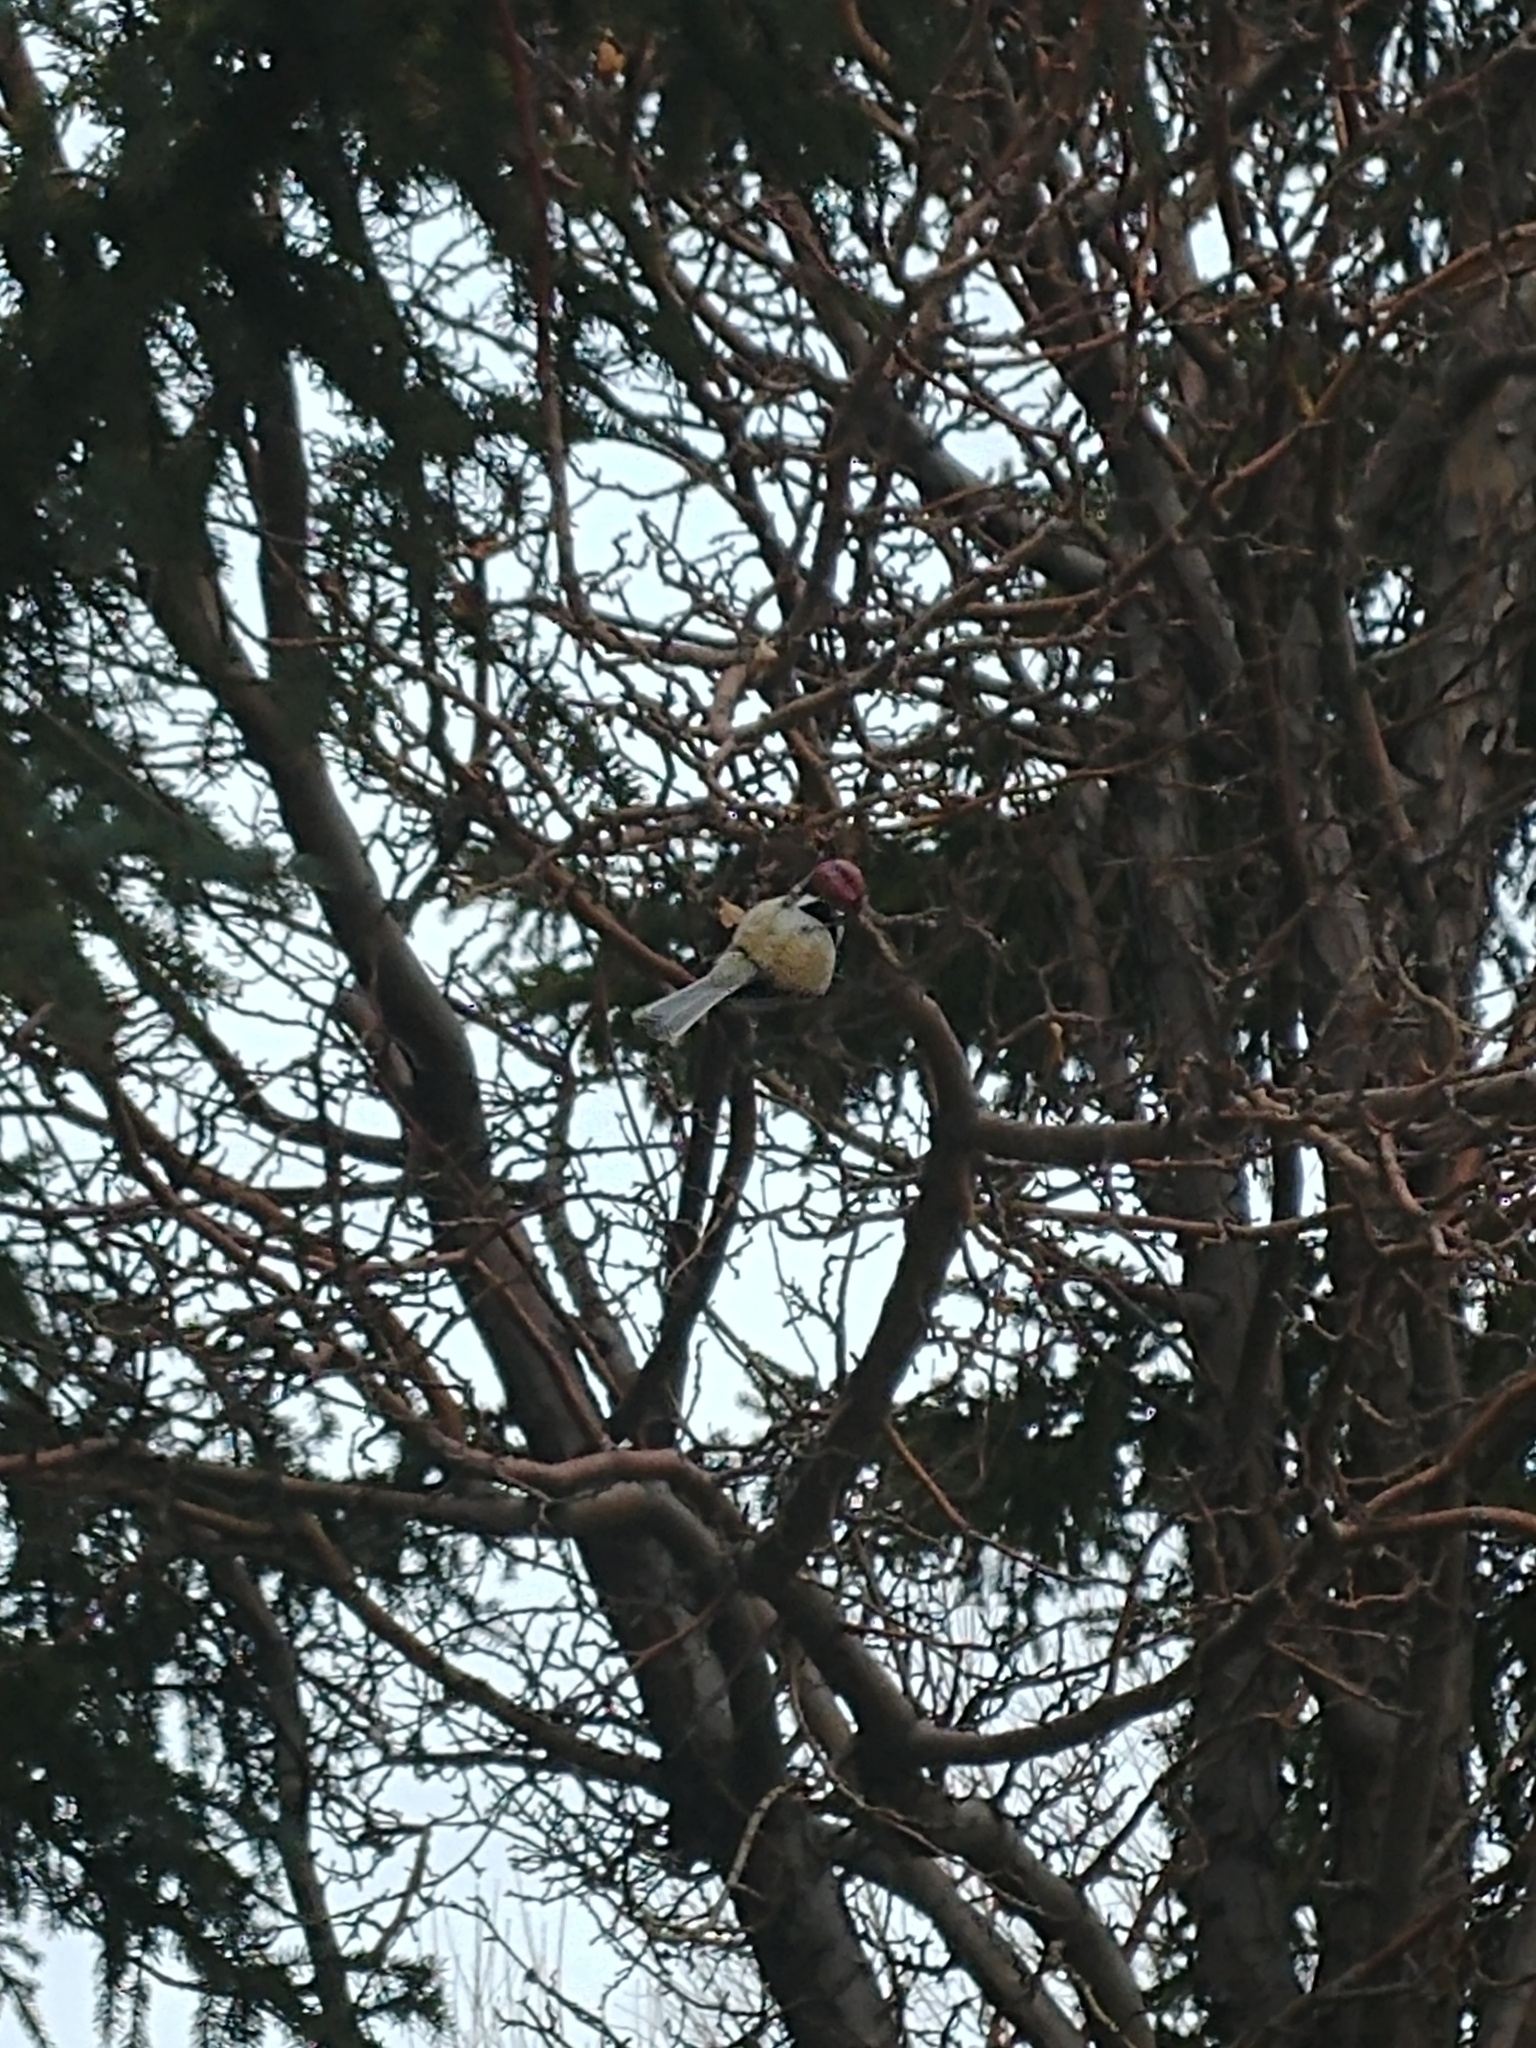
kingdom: Animalia
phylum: Chordata
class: Aves
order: Passeriformes
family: Paridae
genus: Poecile
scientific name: Poecile atricapillus
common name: Black-capped chickadee
